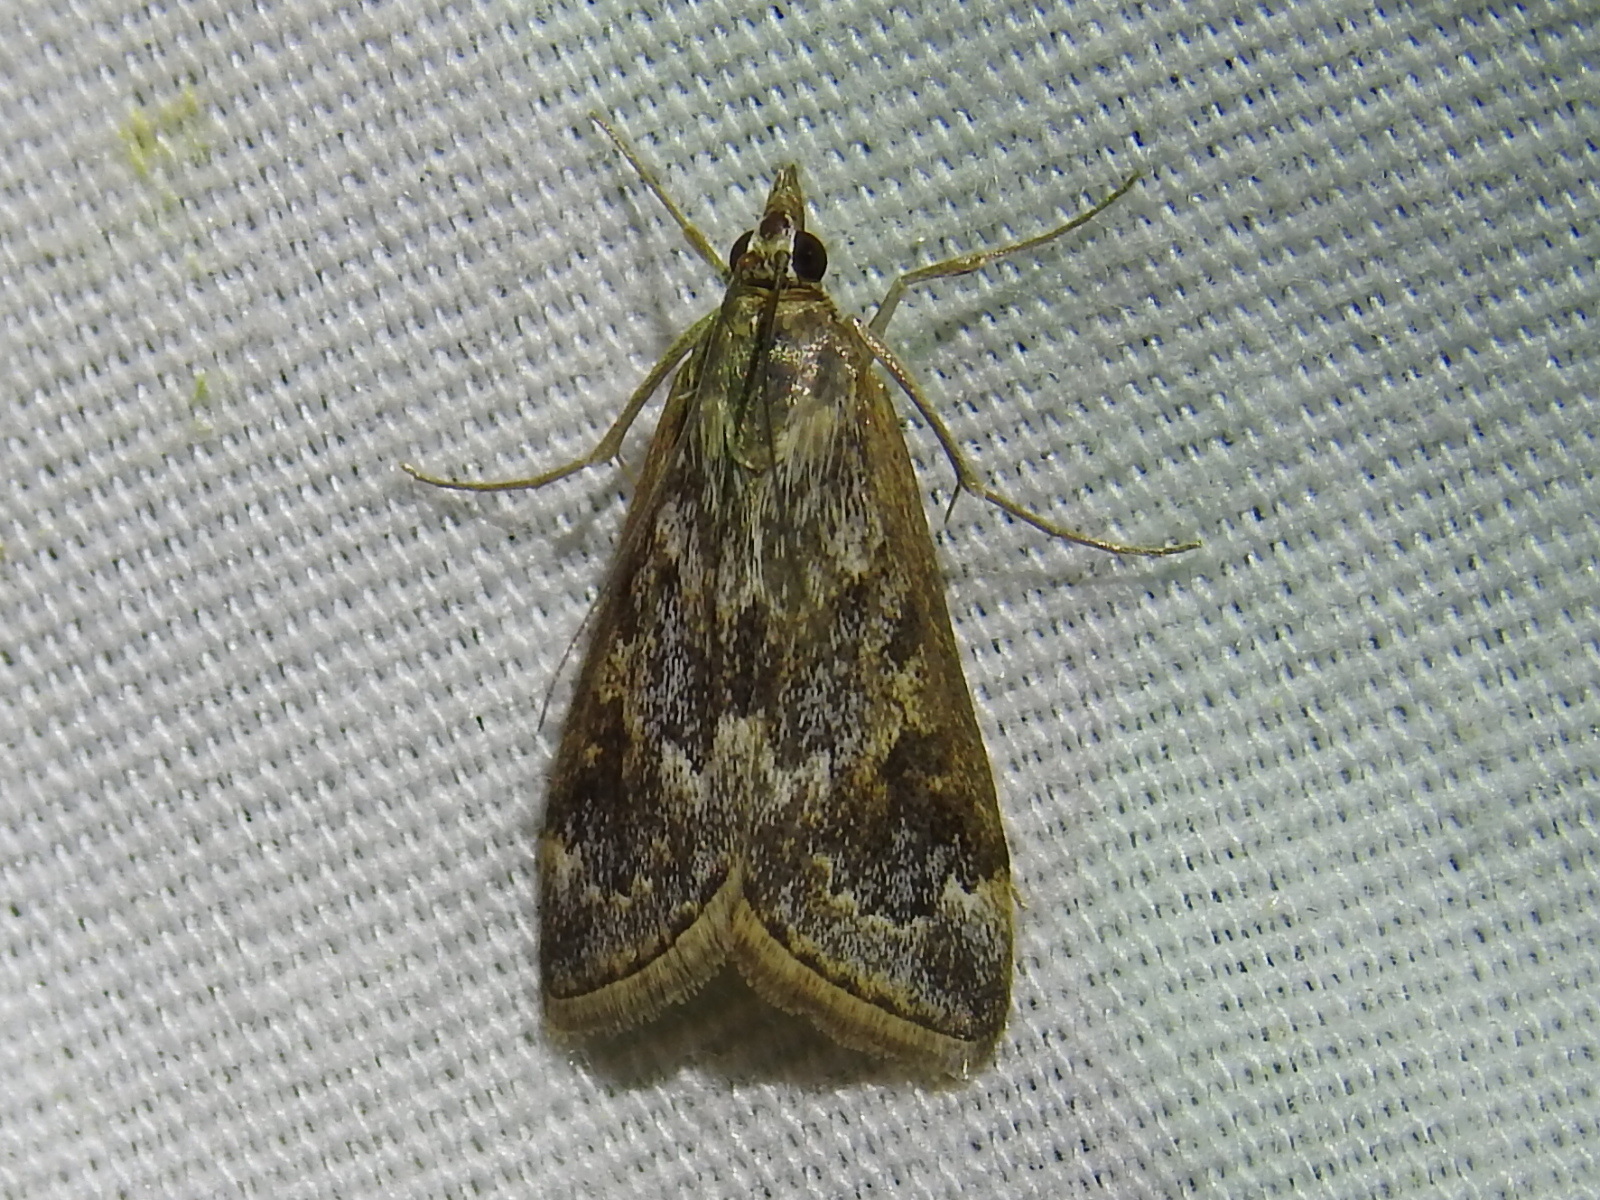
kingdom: Animalia
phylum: Arthropoda
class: Insecta
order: Lepidoptera
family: Crambidae
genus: Loxostege
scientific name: Loxostege allectalis
